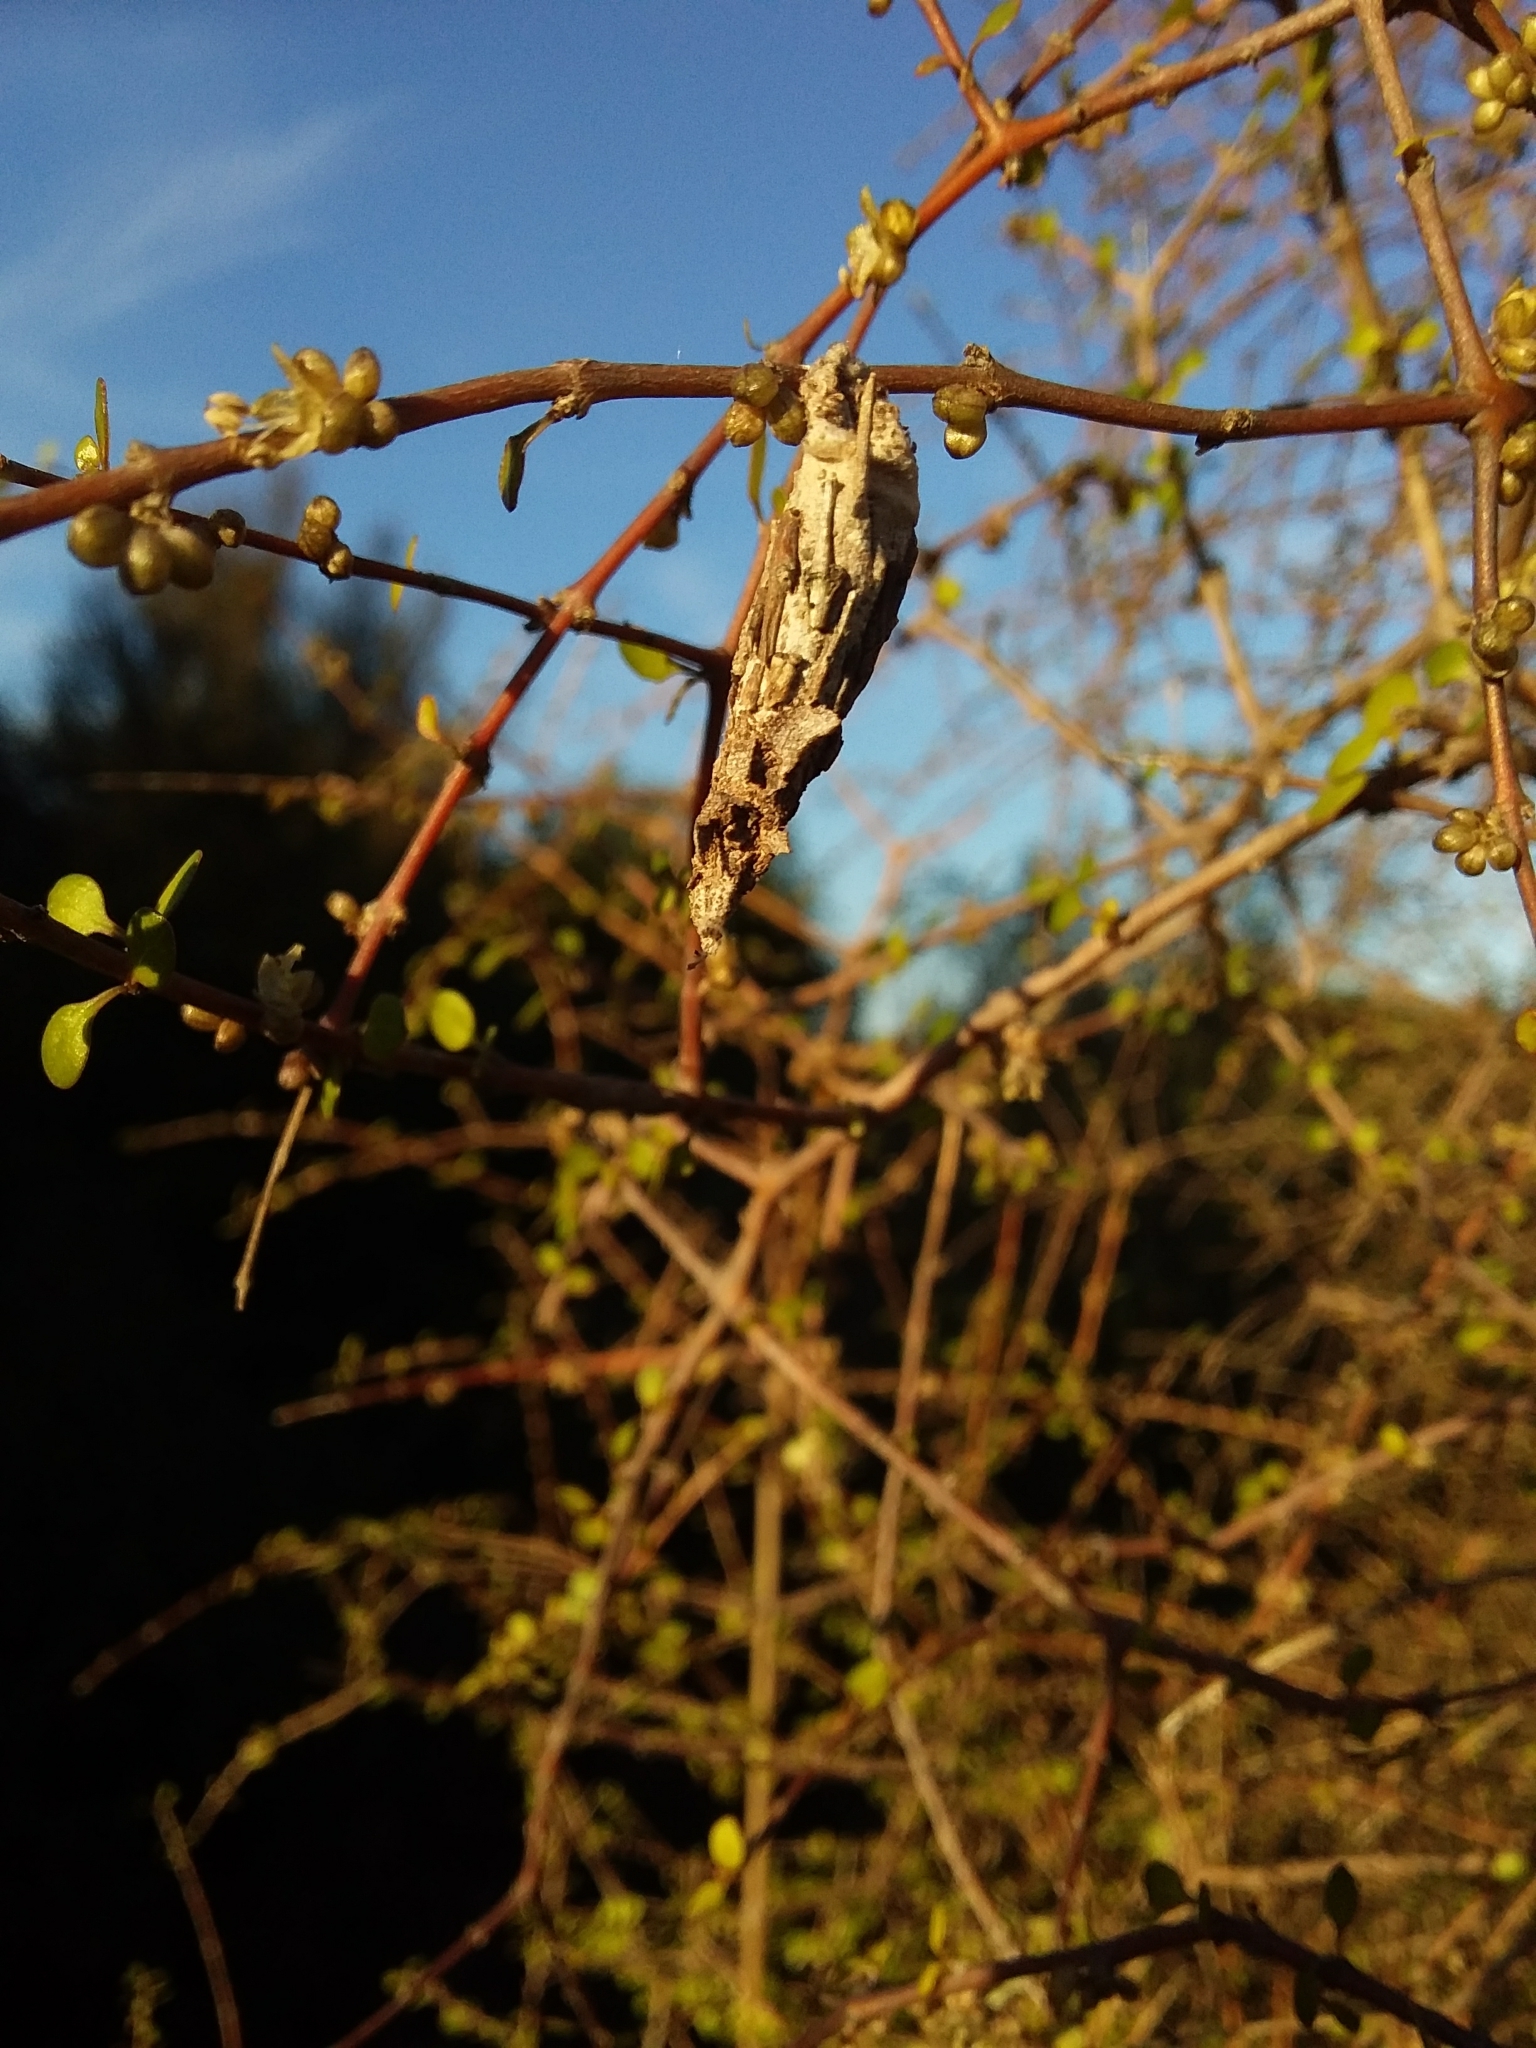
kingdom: Animalia
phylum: Arthropoda
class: Insecta
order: Lepidoptera
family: Psychidae
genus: Liothula
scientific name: Liothula omnivora
